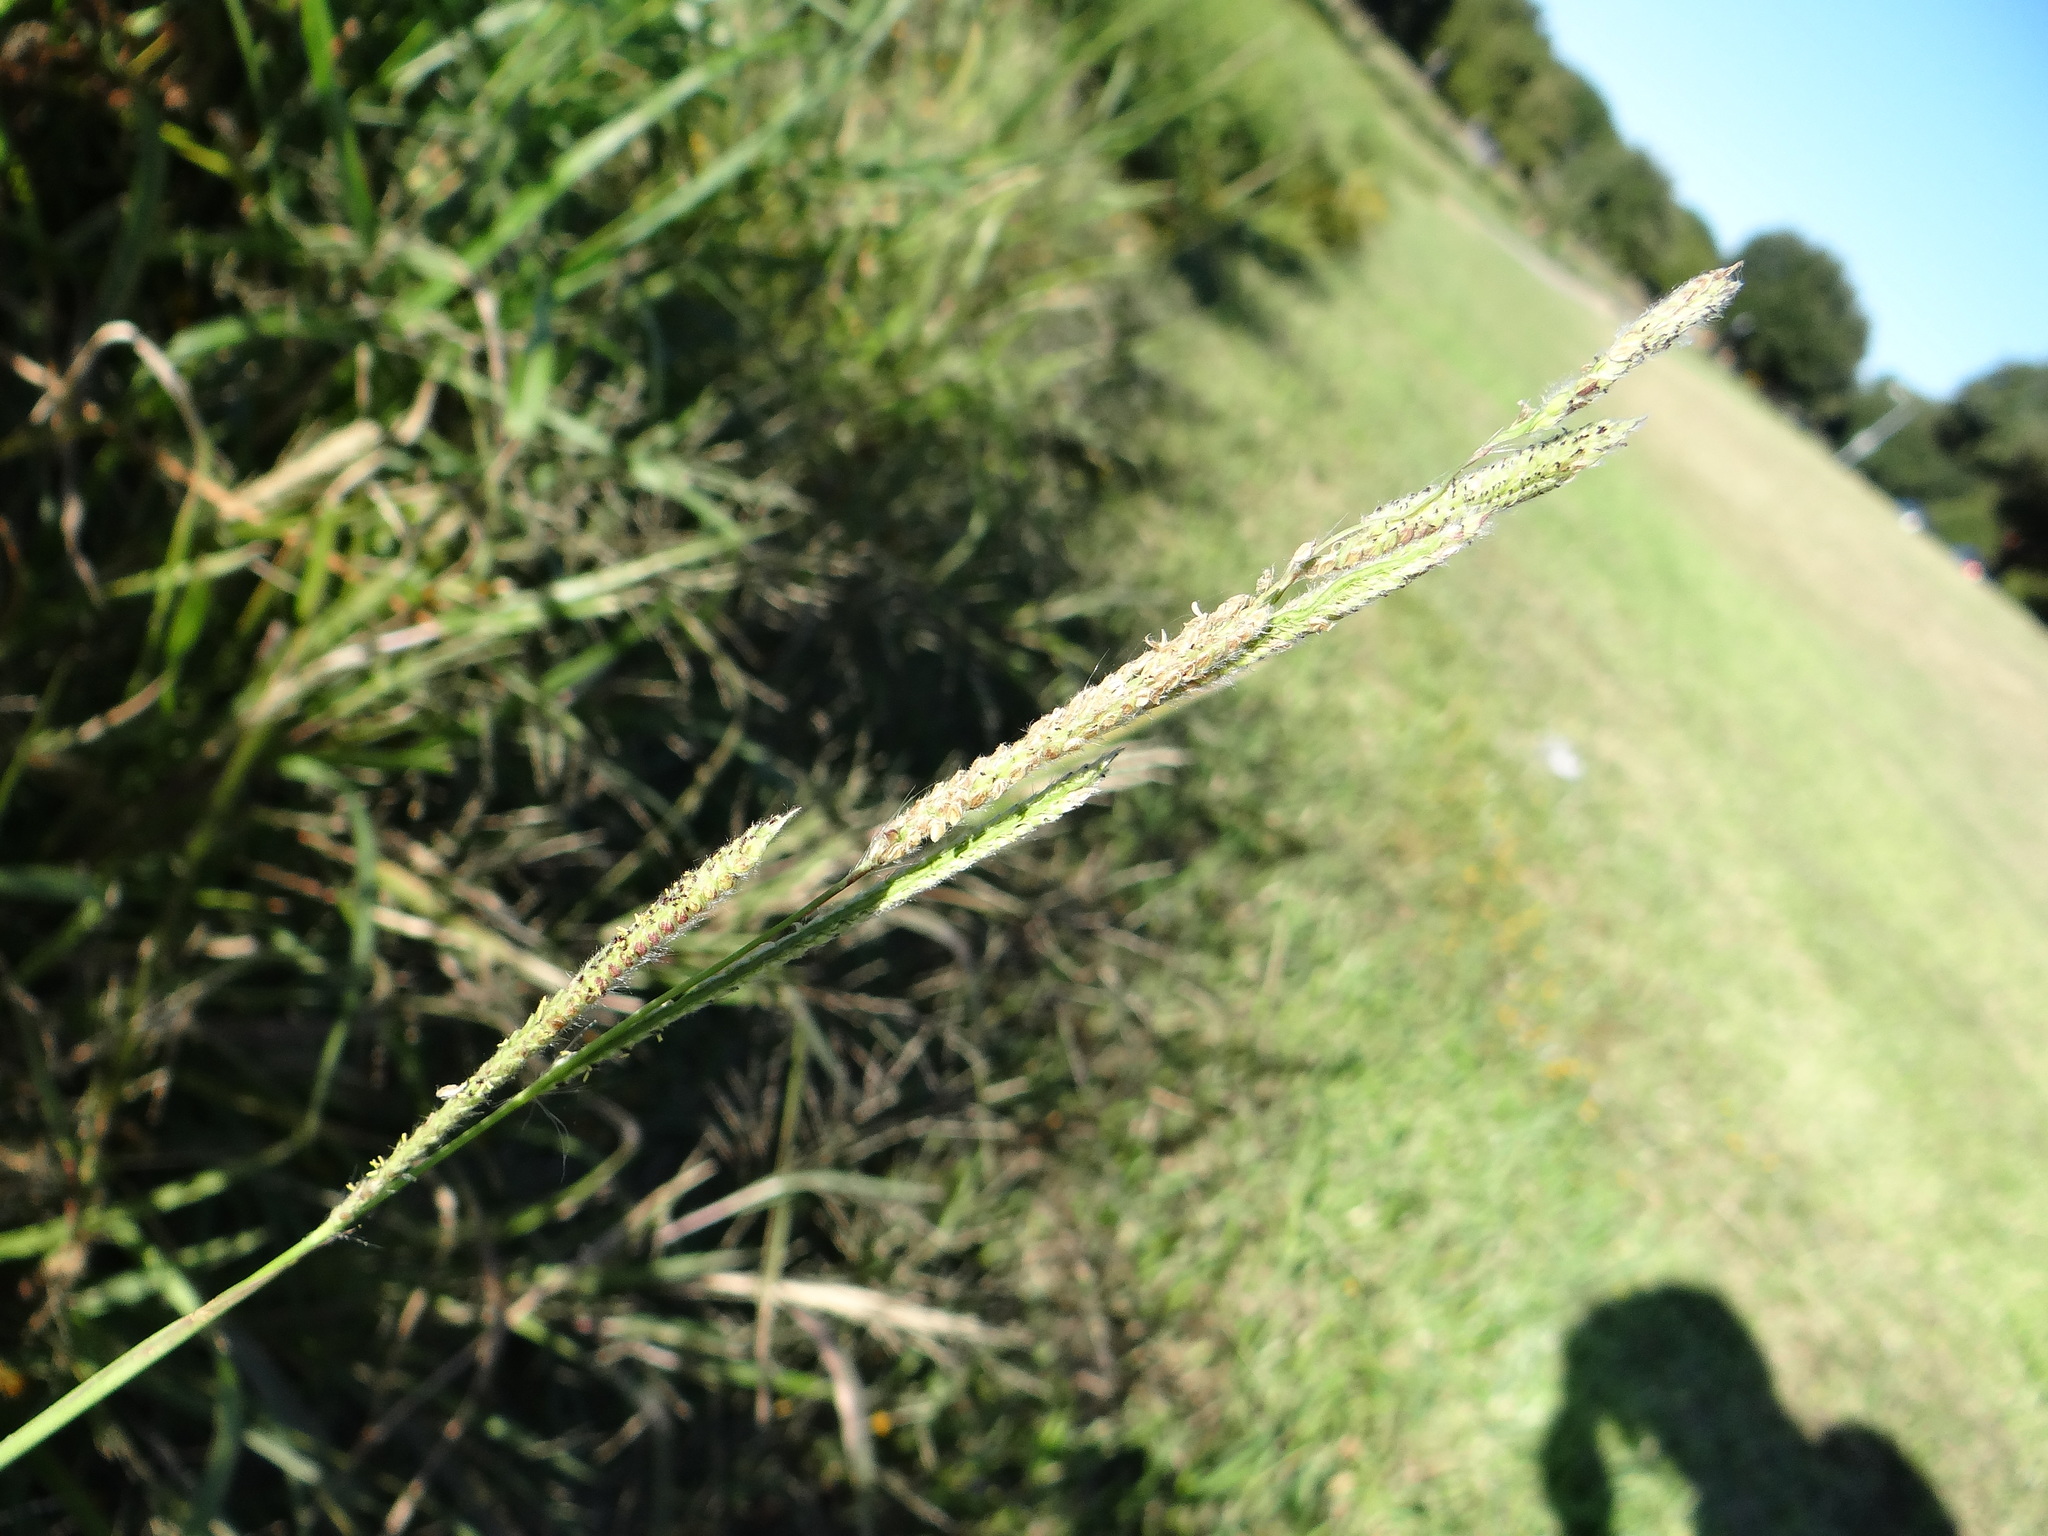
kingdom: Plantae
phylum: Tracheophyta
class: Liliopsida
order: Poales
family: Poaceae
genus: Paspalum
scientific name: Paspalum urvillei
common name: Vasey's grass
